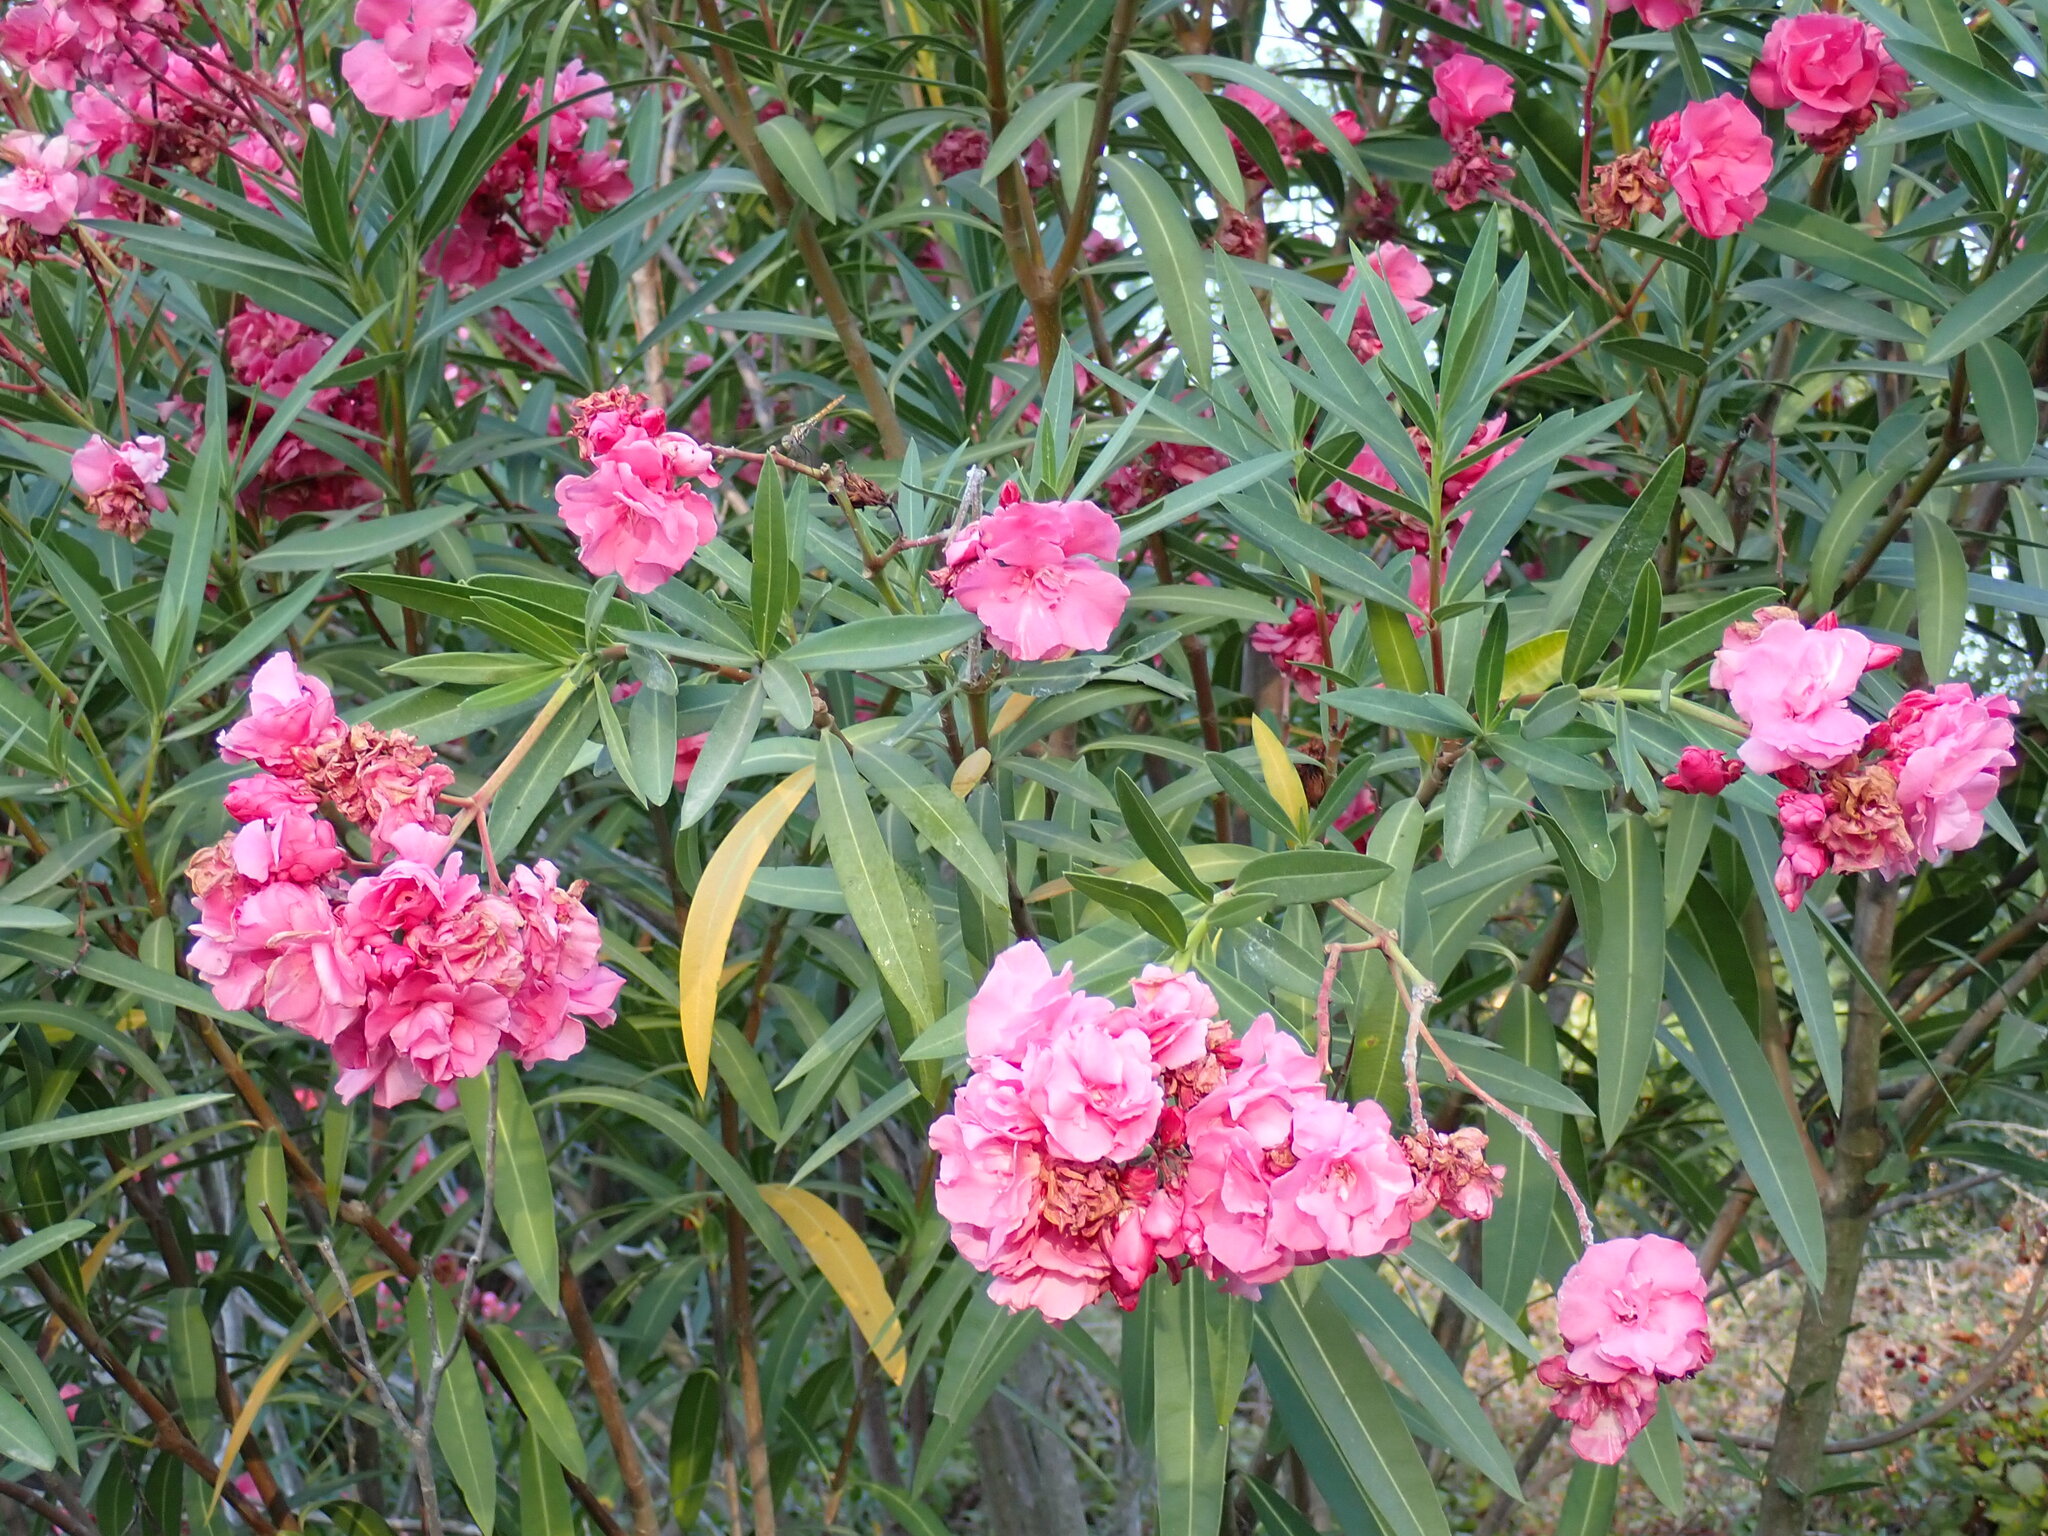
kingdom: Plantae
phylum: Tracheophyta
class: Magnoliopsida
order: Gentianales
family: Apocynaceae
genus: Nerium
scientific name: Nerium oleander
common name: Oleander
